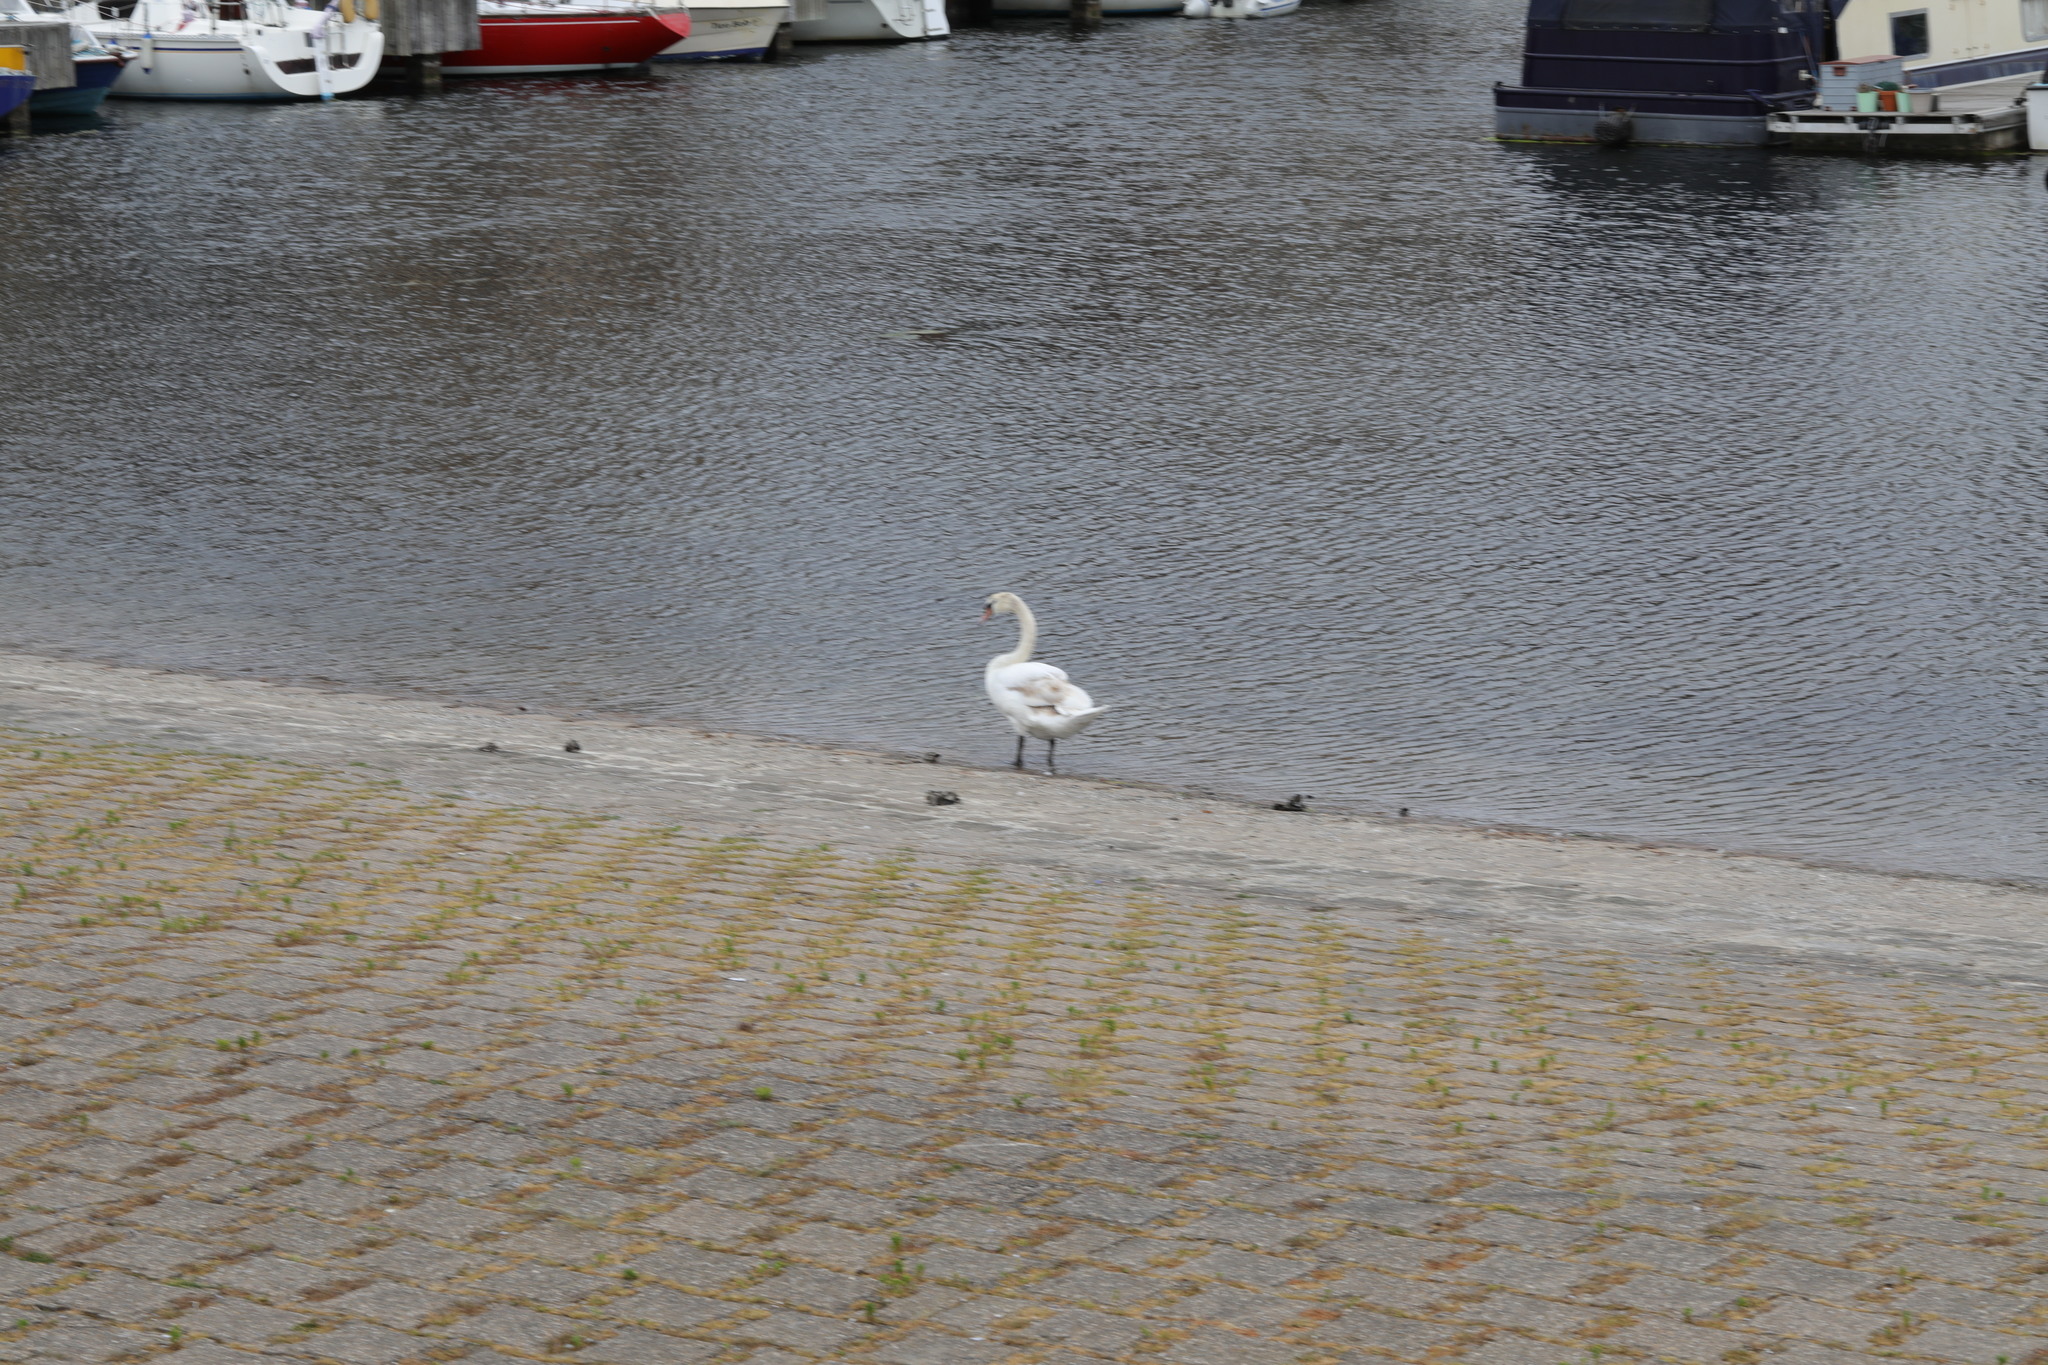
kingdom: Animalia
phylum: Chordata
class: Aves
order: Anseriformes
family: Anatidae
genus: Cygnus
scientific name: Cygnus olor
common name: Mute swan
